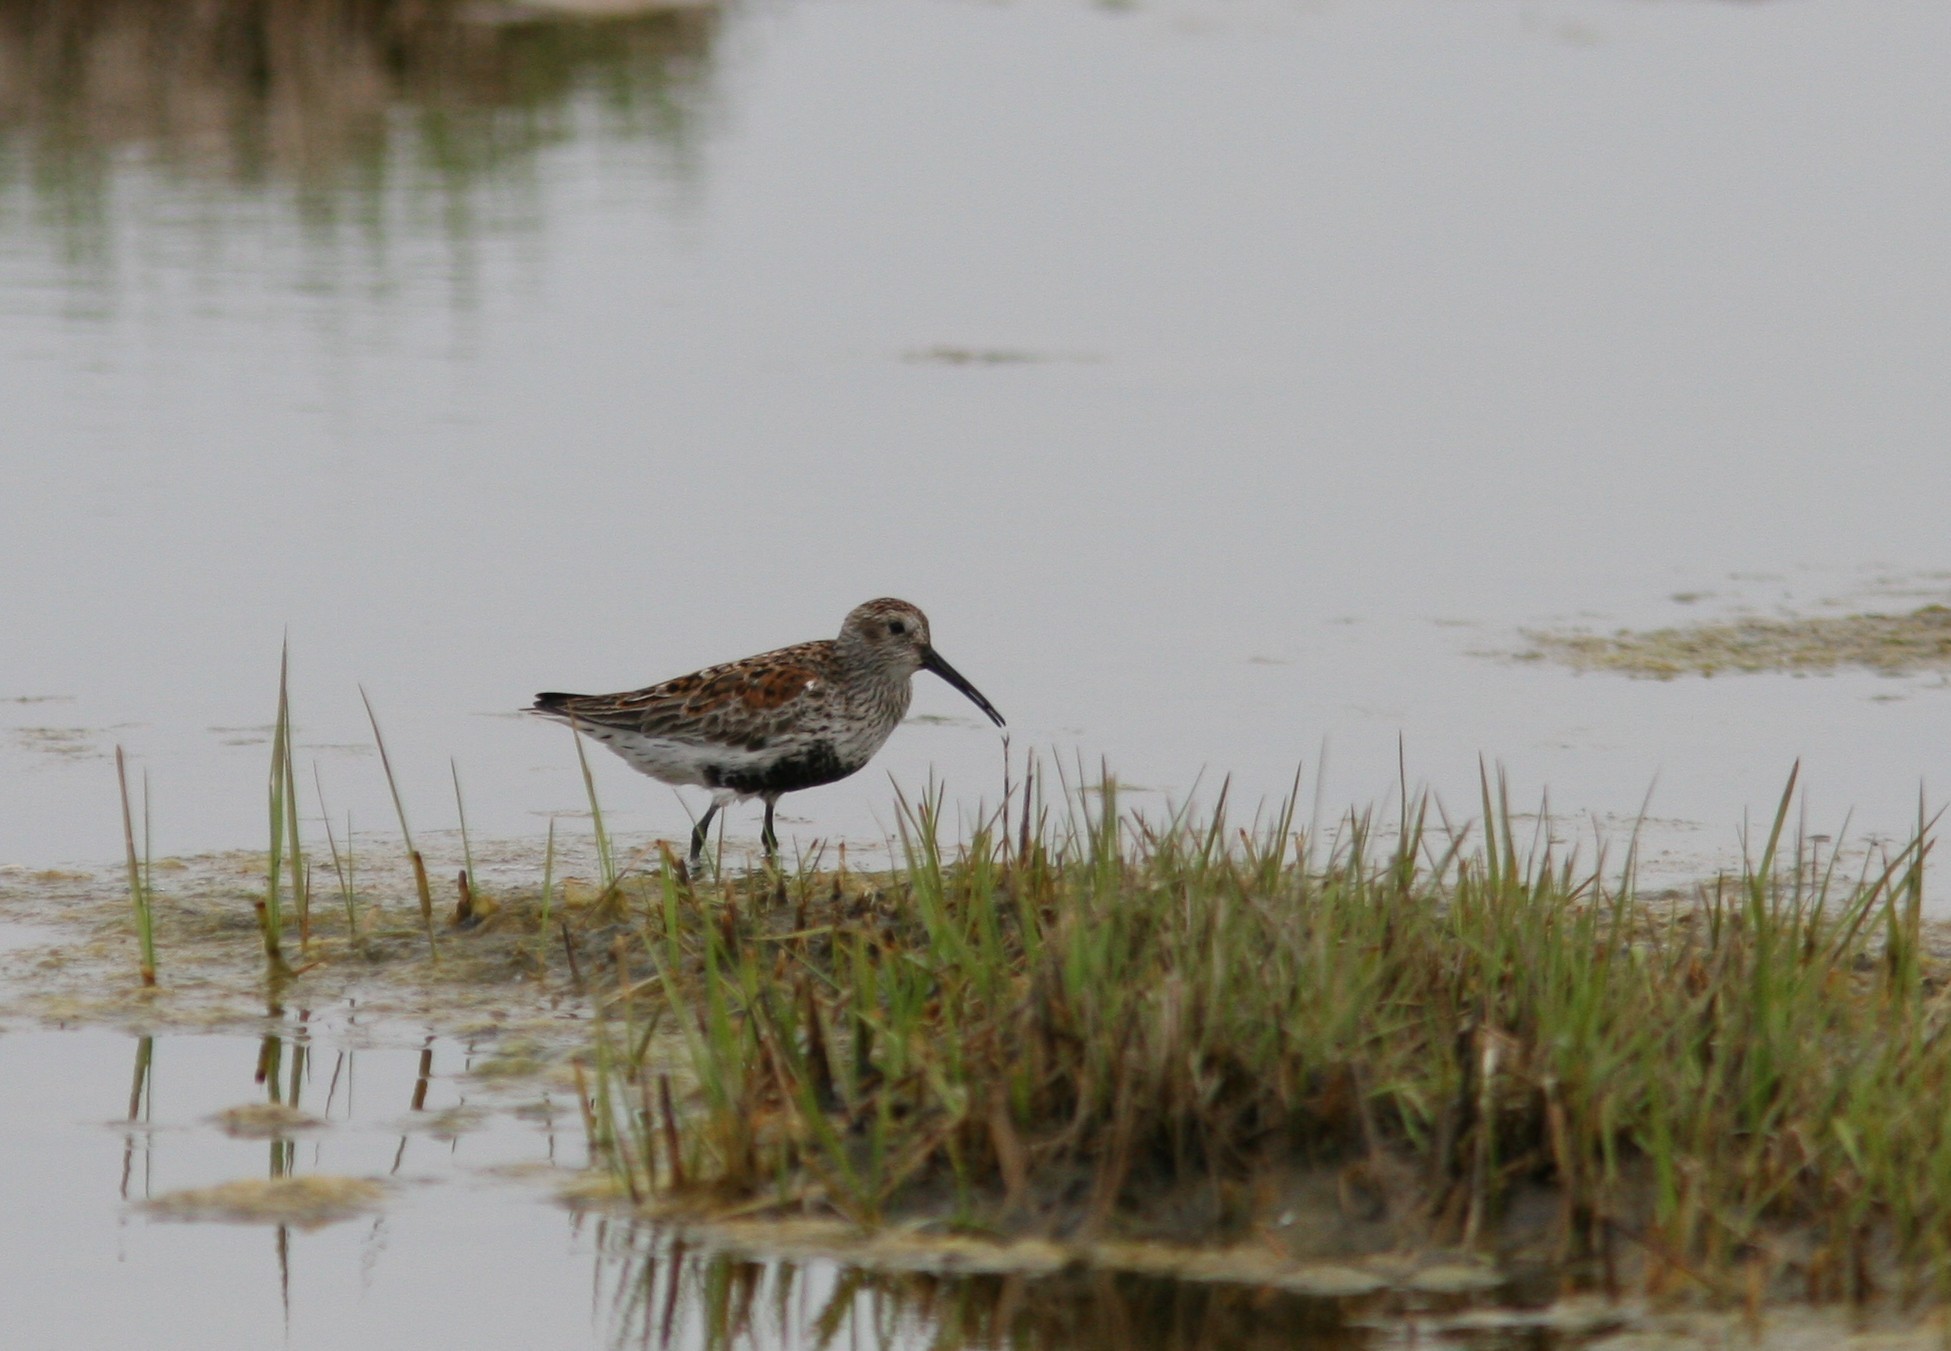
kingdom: Animalia
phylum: Chordata
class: Aves
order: Charadriiformes
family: Scolopacidae
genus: Calidris
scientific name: Calidris alpina
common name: Dunlin
